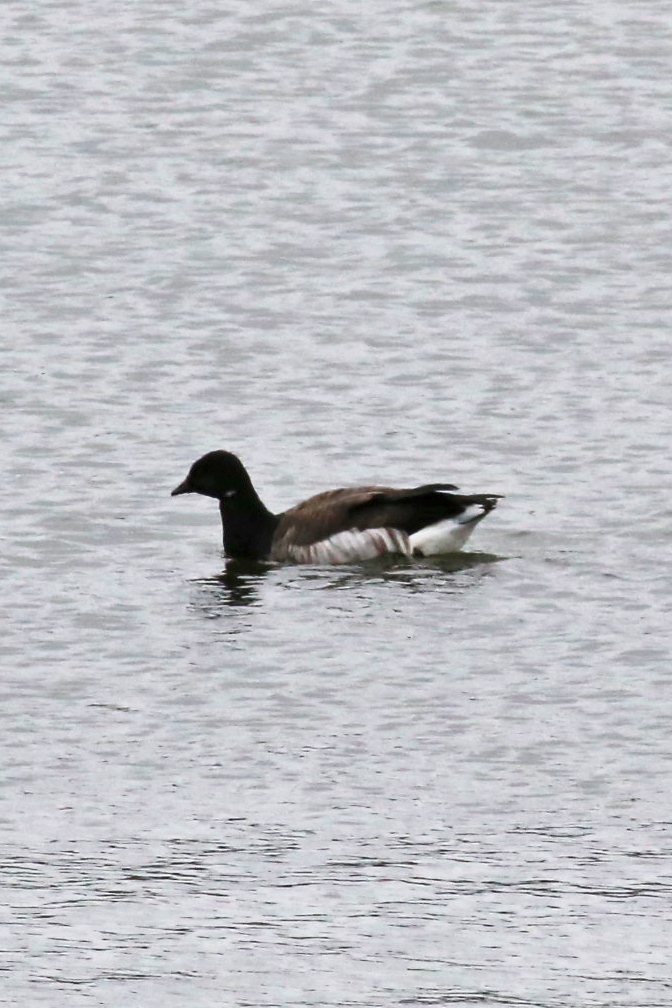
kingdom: Animalia
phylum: Chordata
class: Aves
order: Anseriformes
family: Anatidae
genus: Branta
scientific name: Branta bernicla
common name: Brant goose
